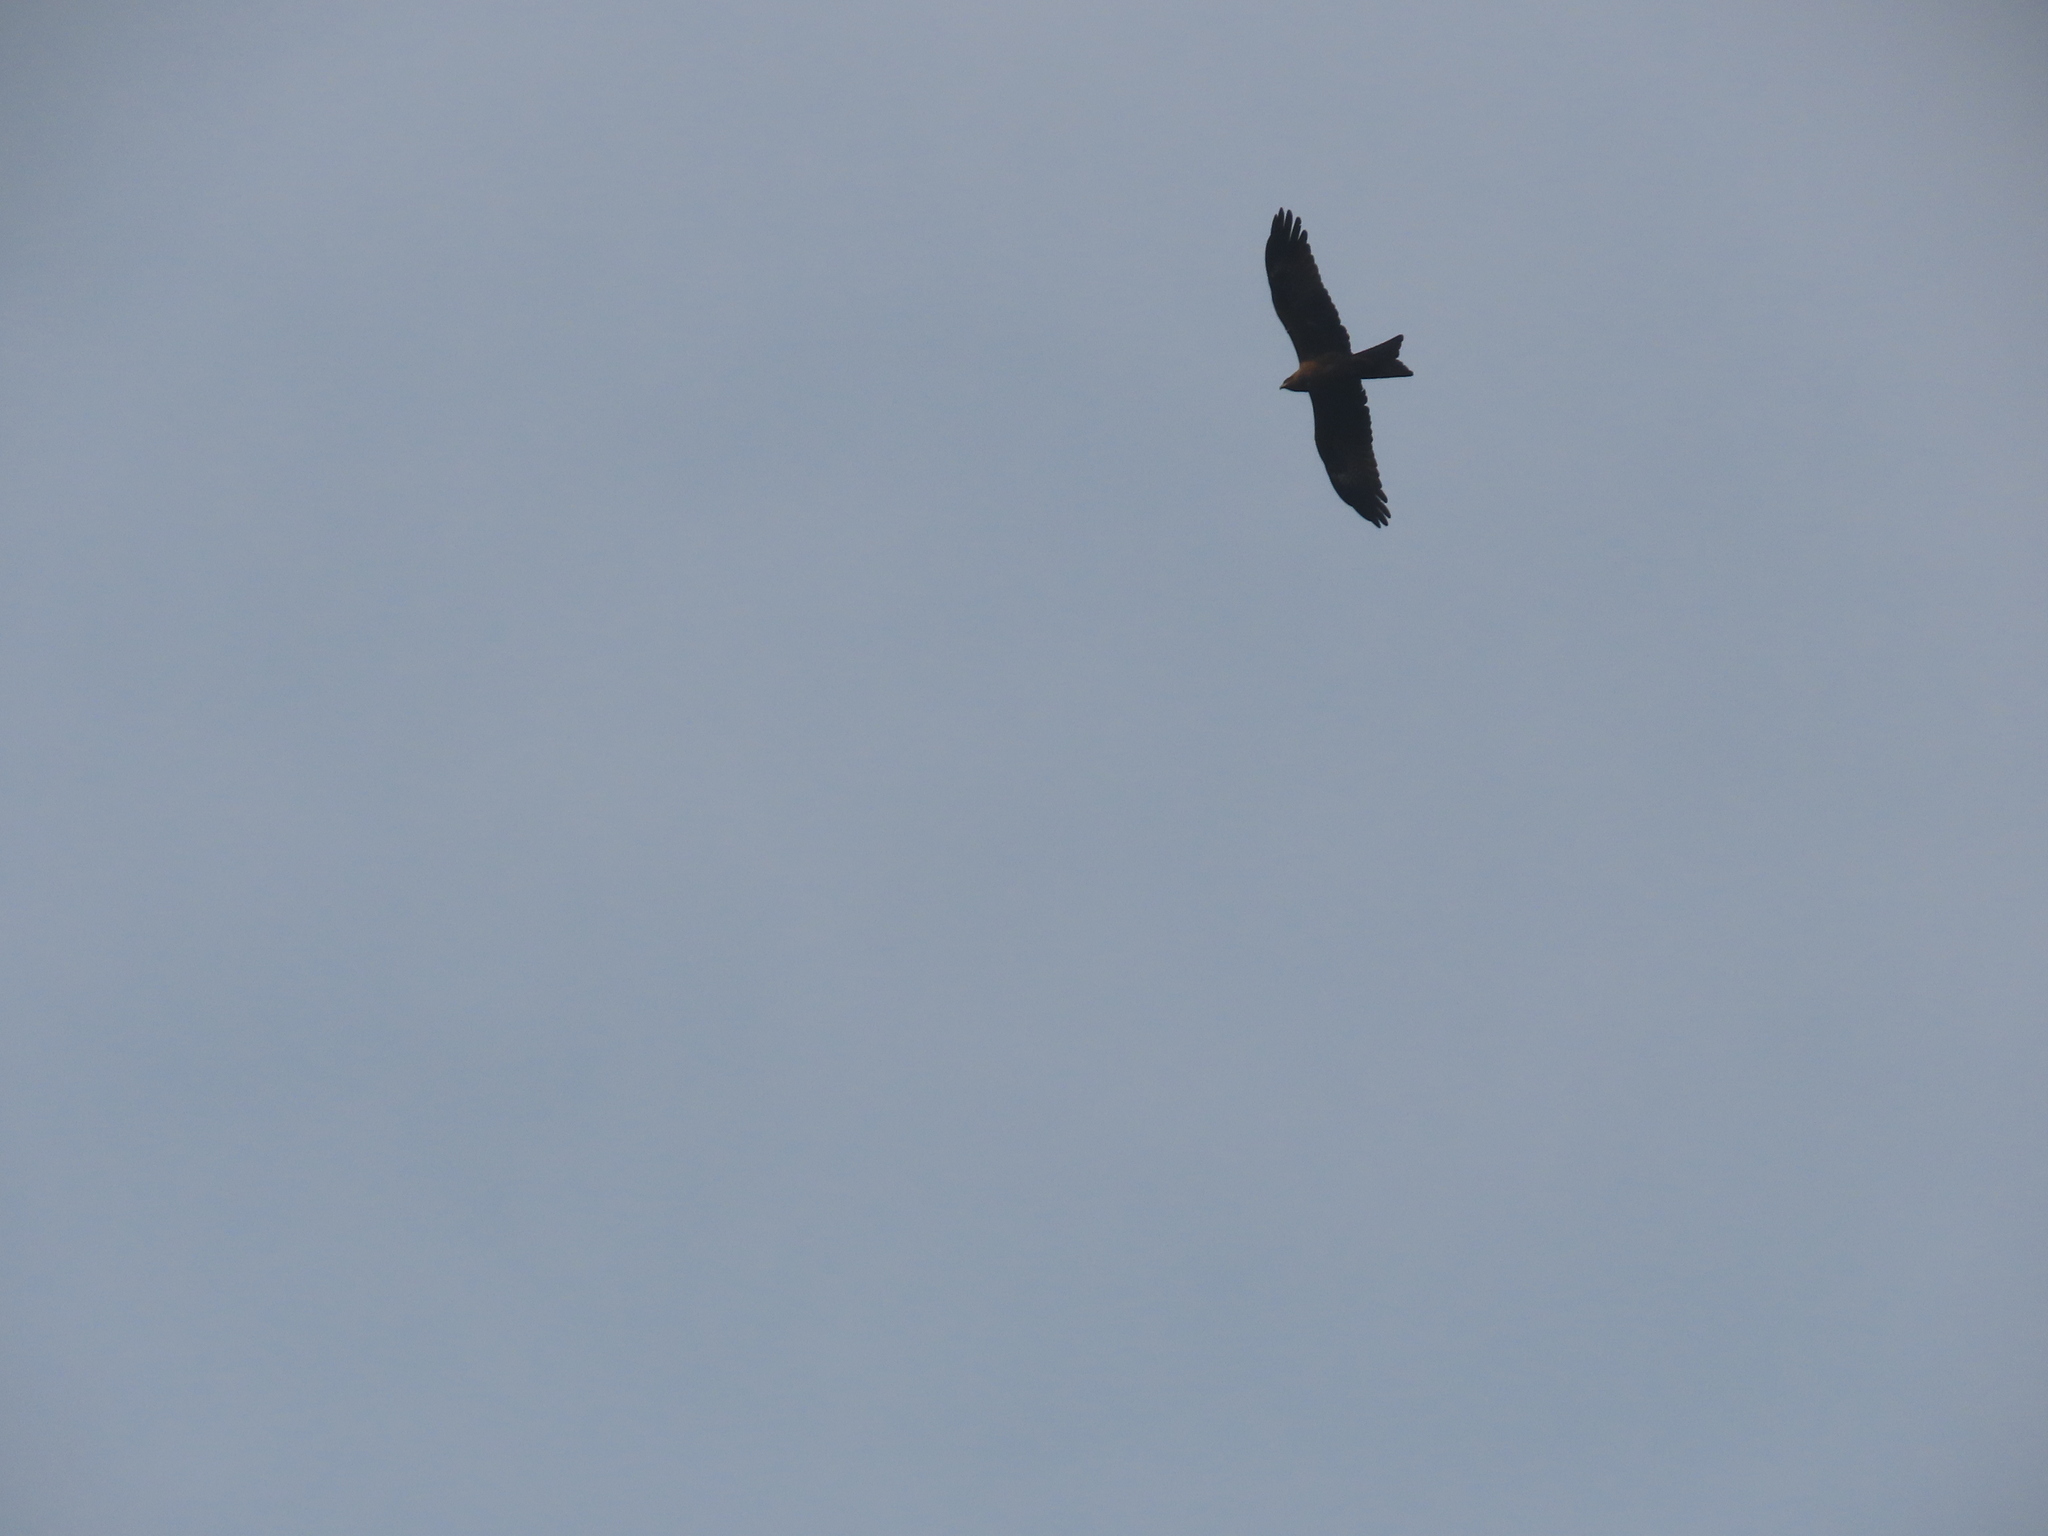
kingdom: Animalia
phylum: Chordata
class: Aves
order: Accipitriformes
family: Accipitridae
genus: Milvus
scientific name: Milvus migrans
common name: Black kite
